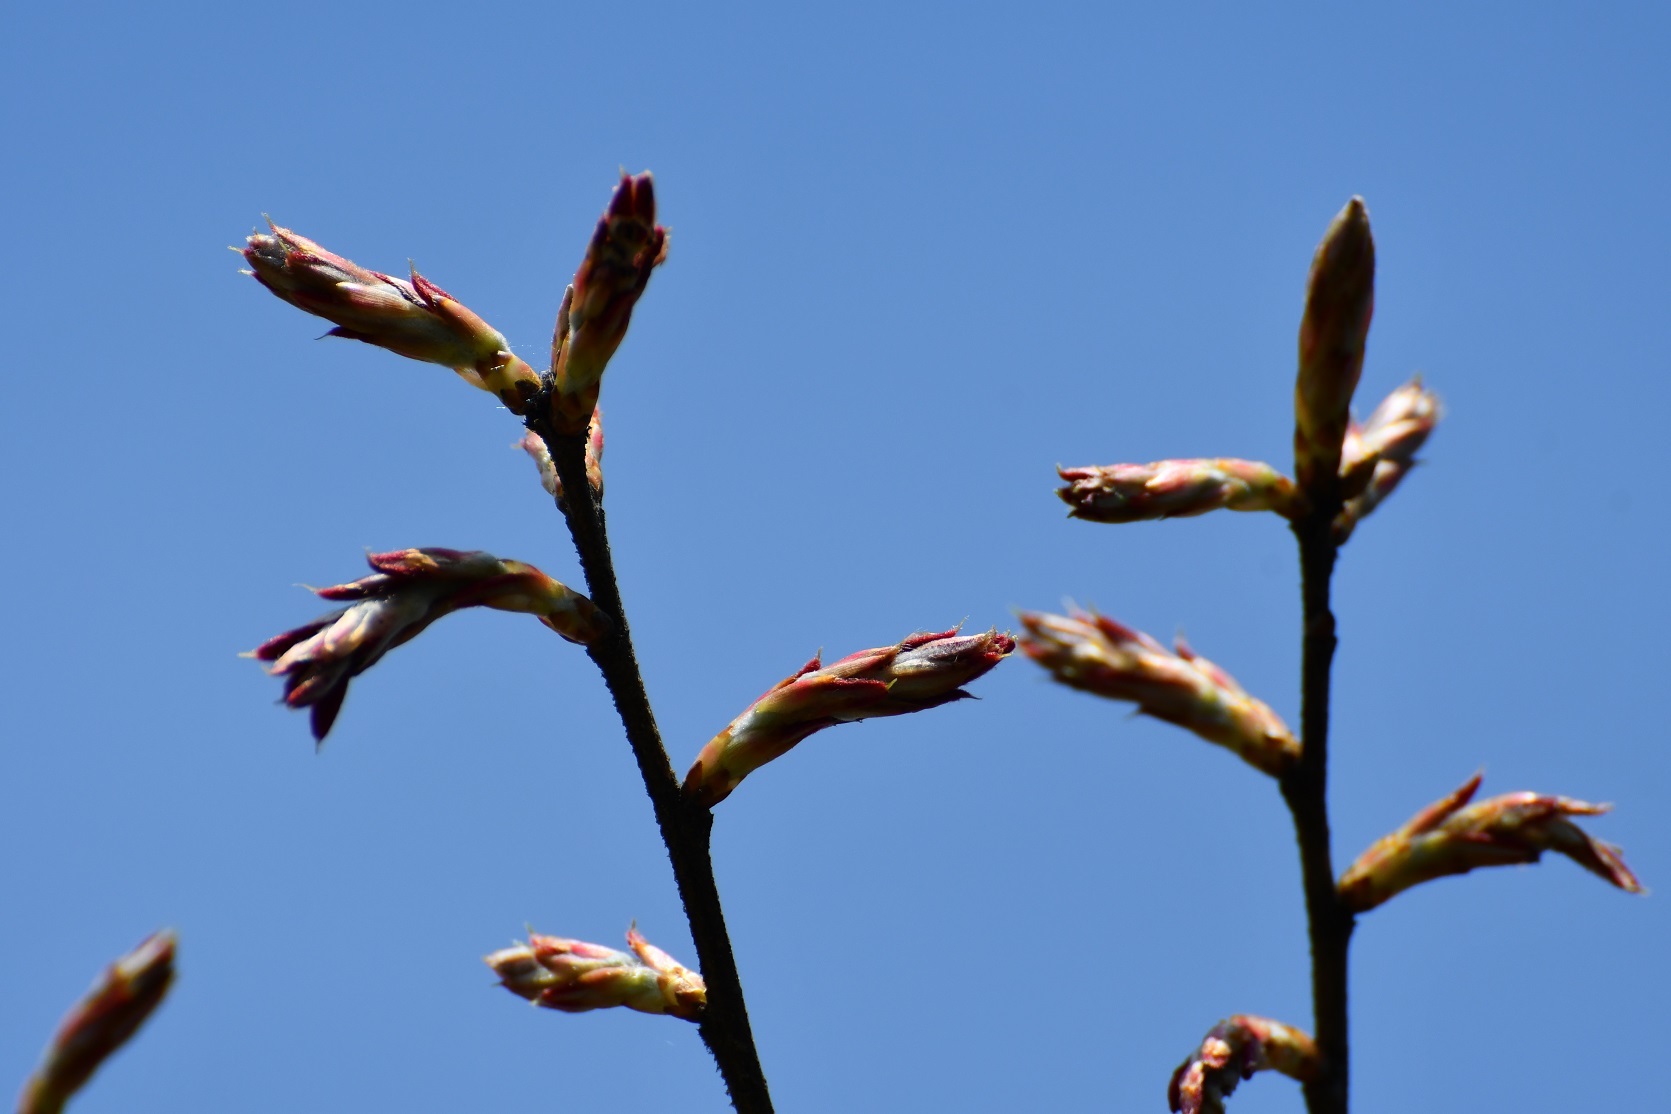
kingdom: Plantae
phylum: Tracheophyta
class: Magnoliopsida
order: Fagales
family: Fagaceae
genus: Quercus
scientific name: Quercus crispipilis
